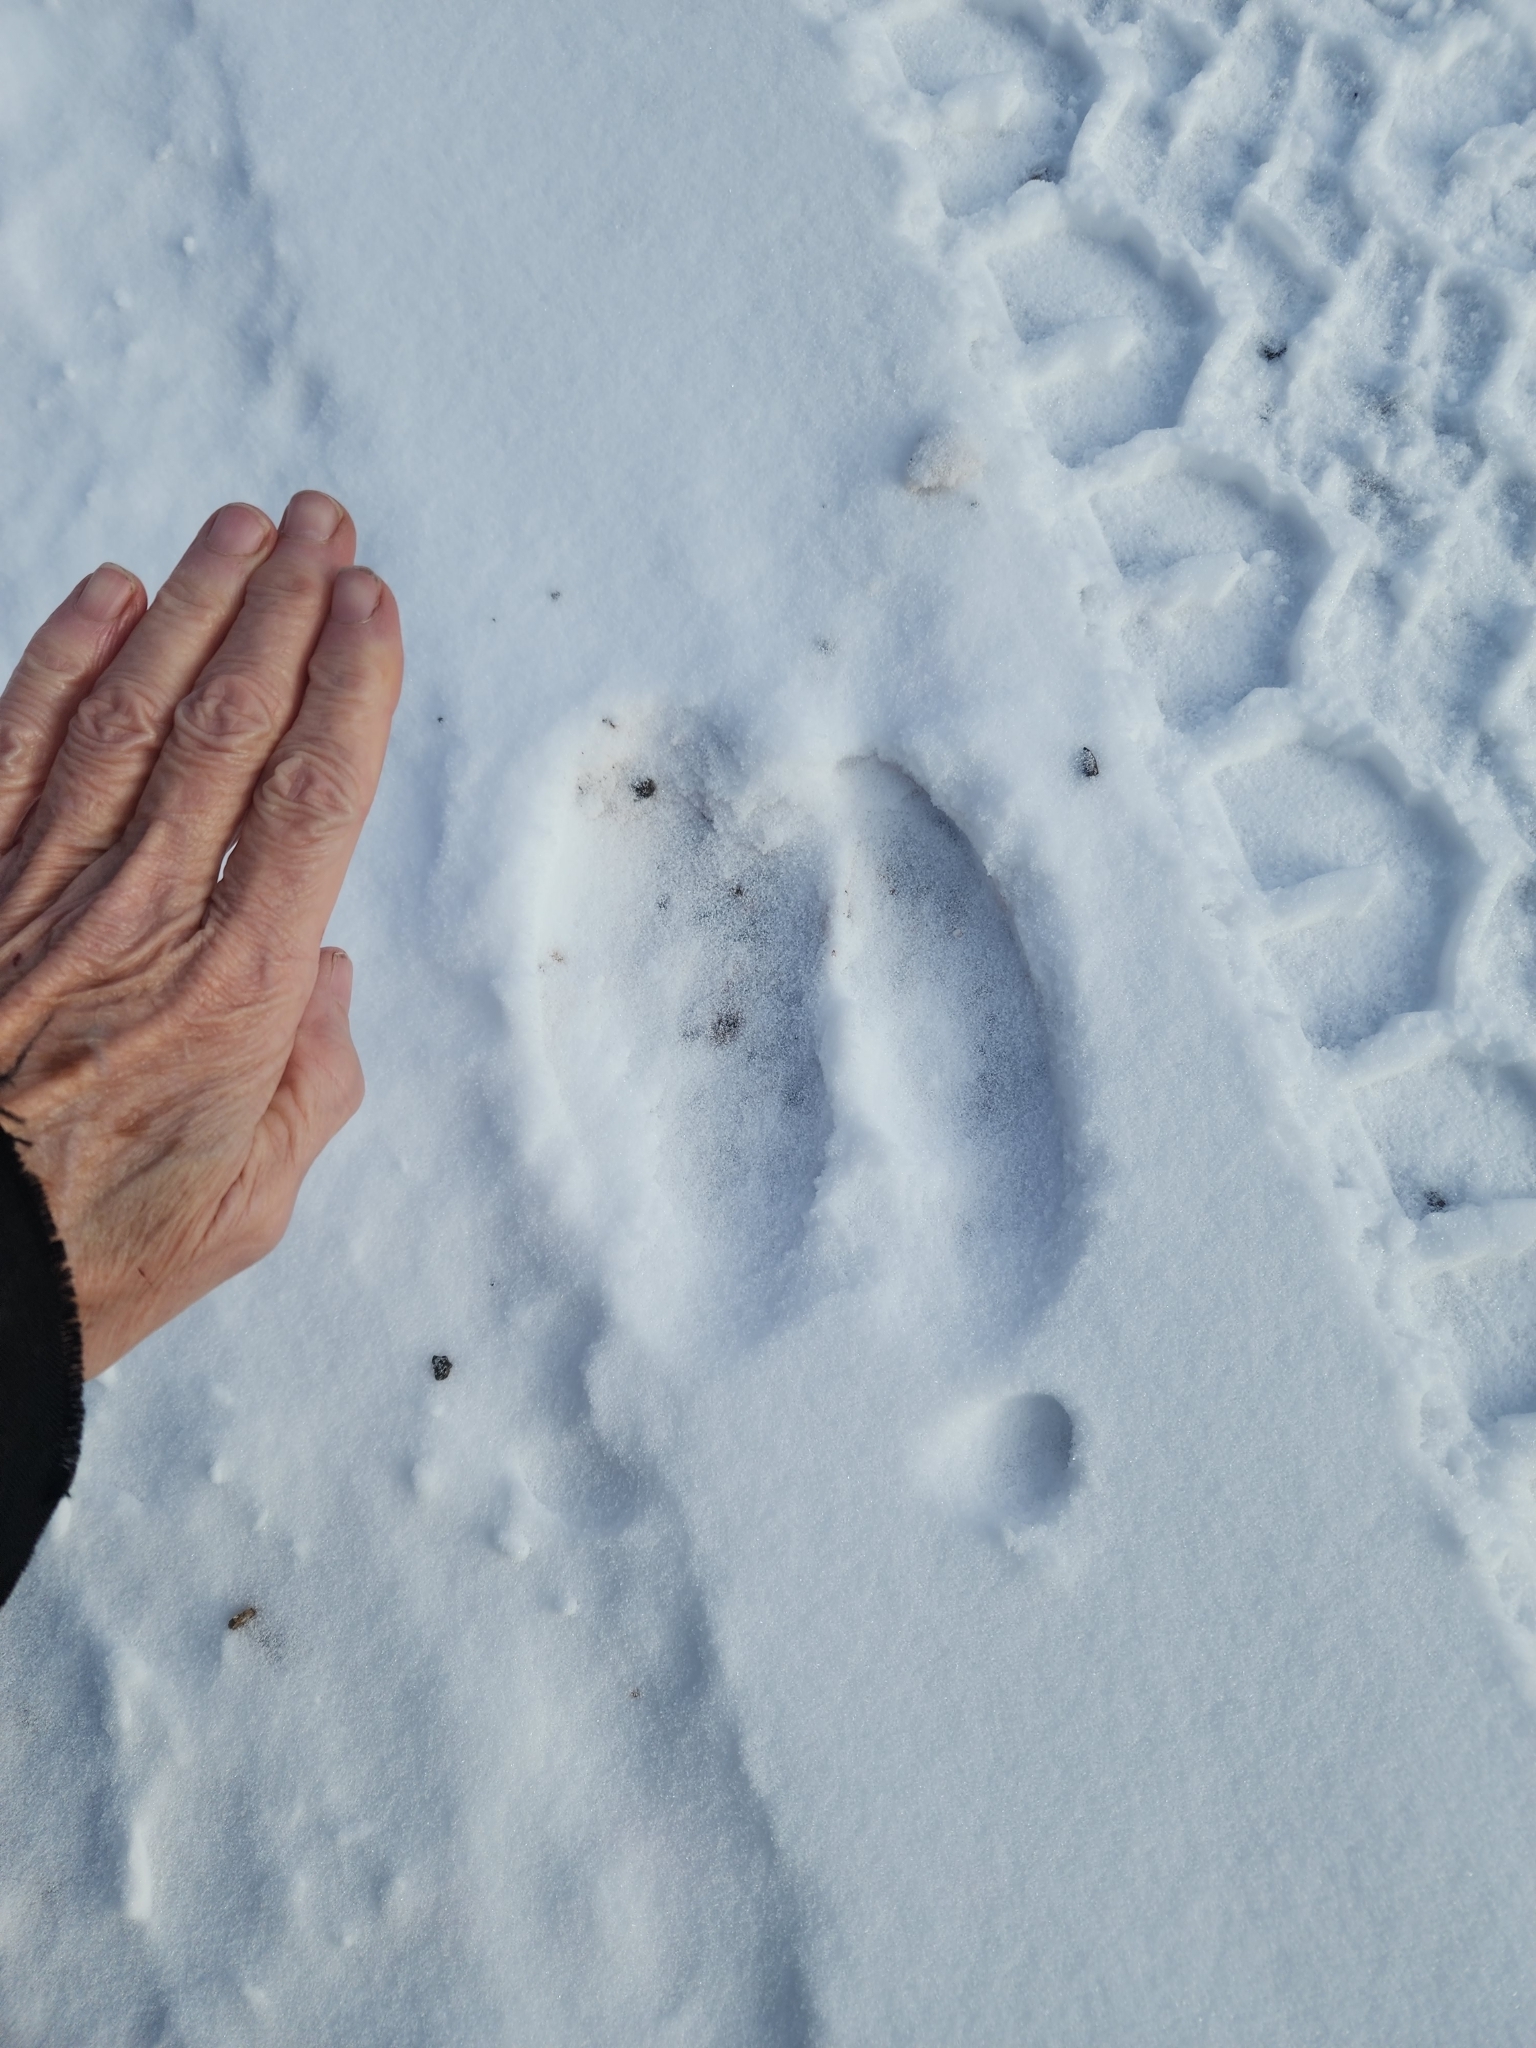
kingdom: Animalia
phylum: Chordata
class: Mammalia
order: Artiodactyla
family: Cervidae
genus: Alces
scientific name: Alces alces
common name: Moose
